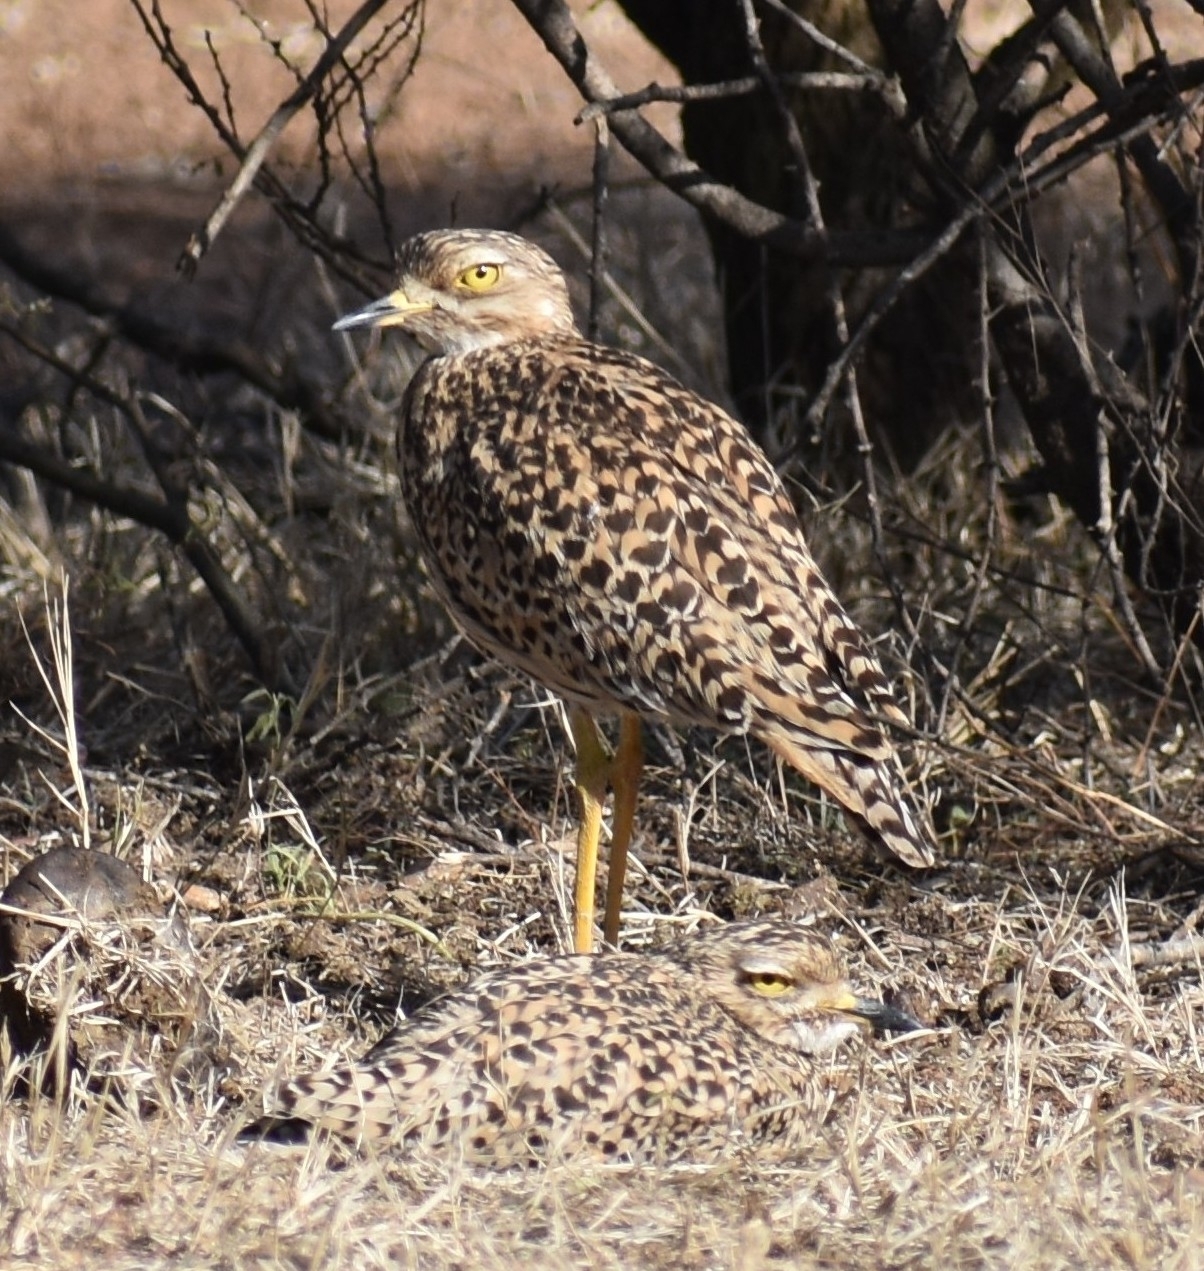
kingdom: Animalia
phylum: Chordata
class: Aves
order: Charadriiformes
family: Burhinidae
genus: Burhinus
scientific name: Burhinus capensis
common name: Spotted thick-knee
